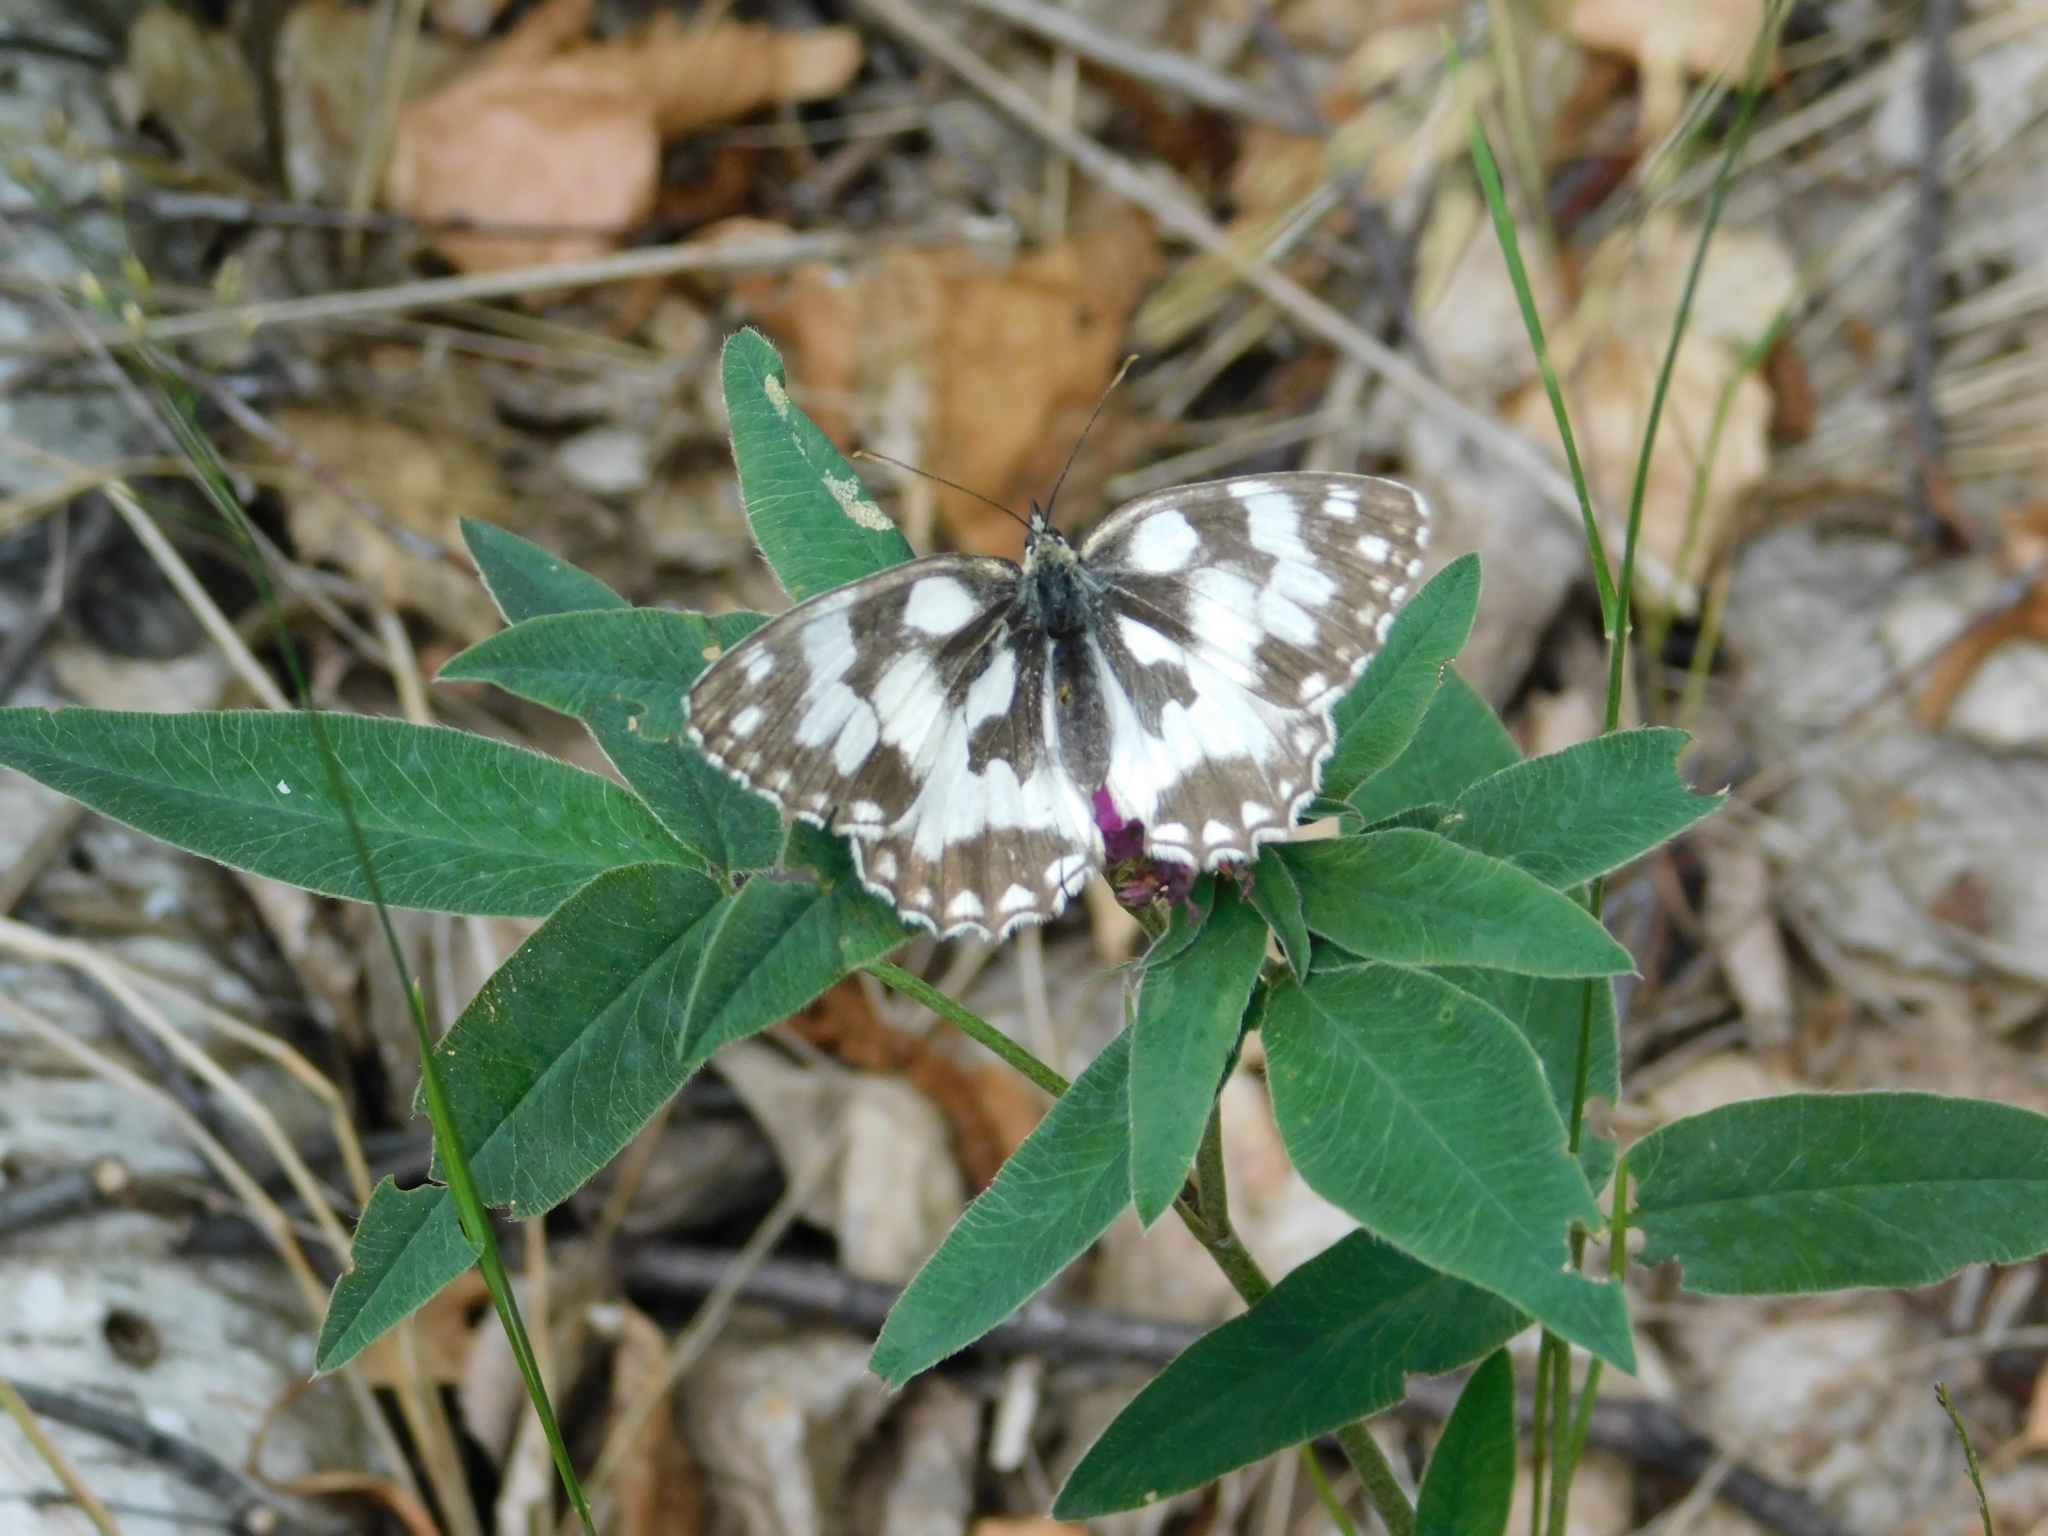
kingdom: Animalia
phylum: Arthropoda
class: Insecta
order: Lepidoptera
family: Nymphalidae
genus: Melanargia
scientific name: Melanargia galathea
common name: Marbled white
